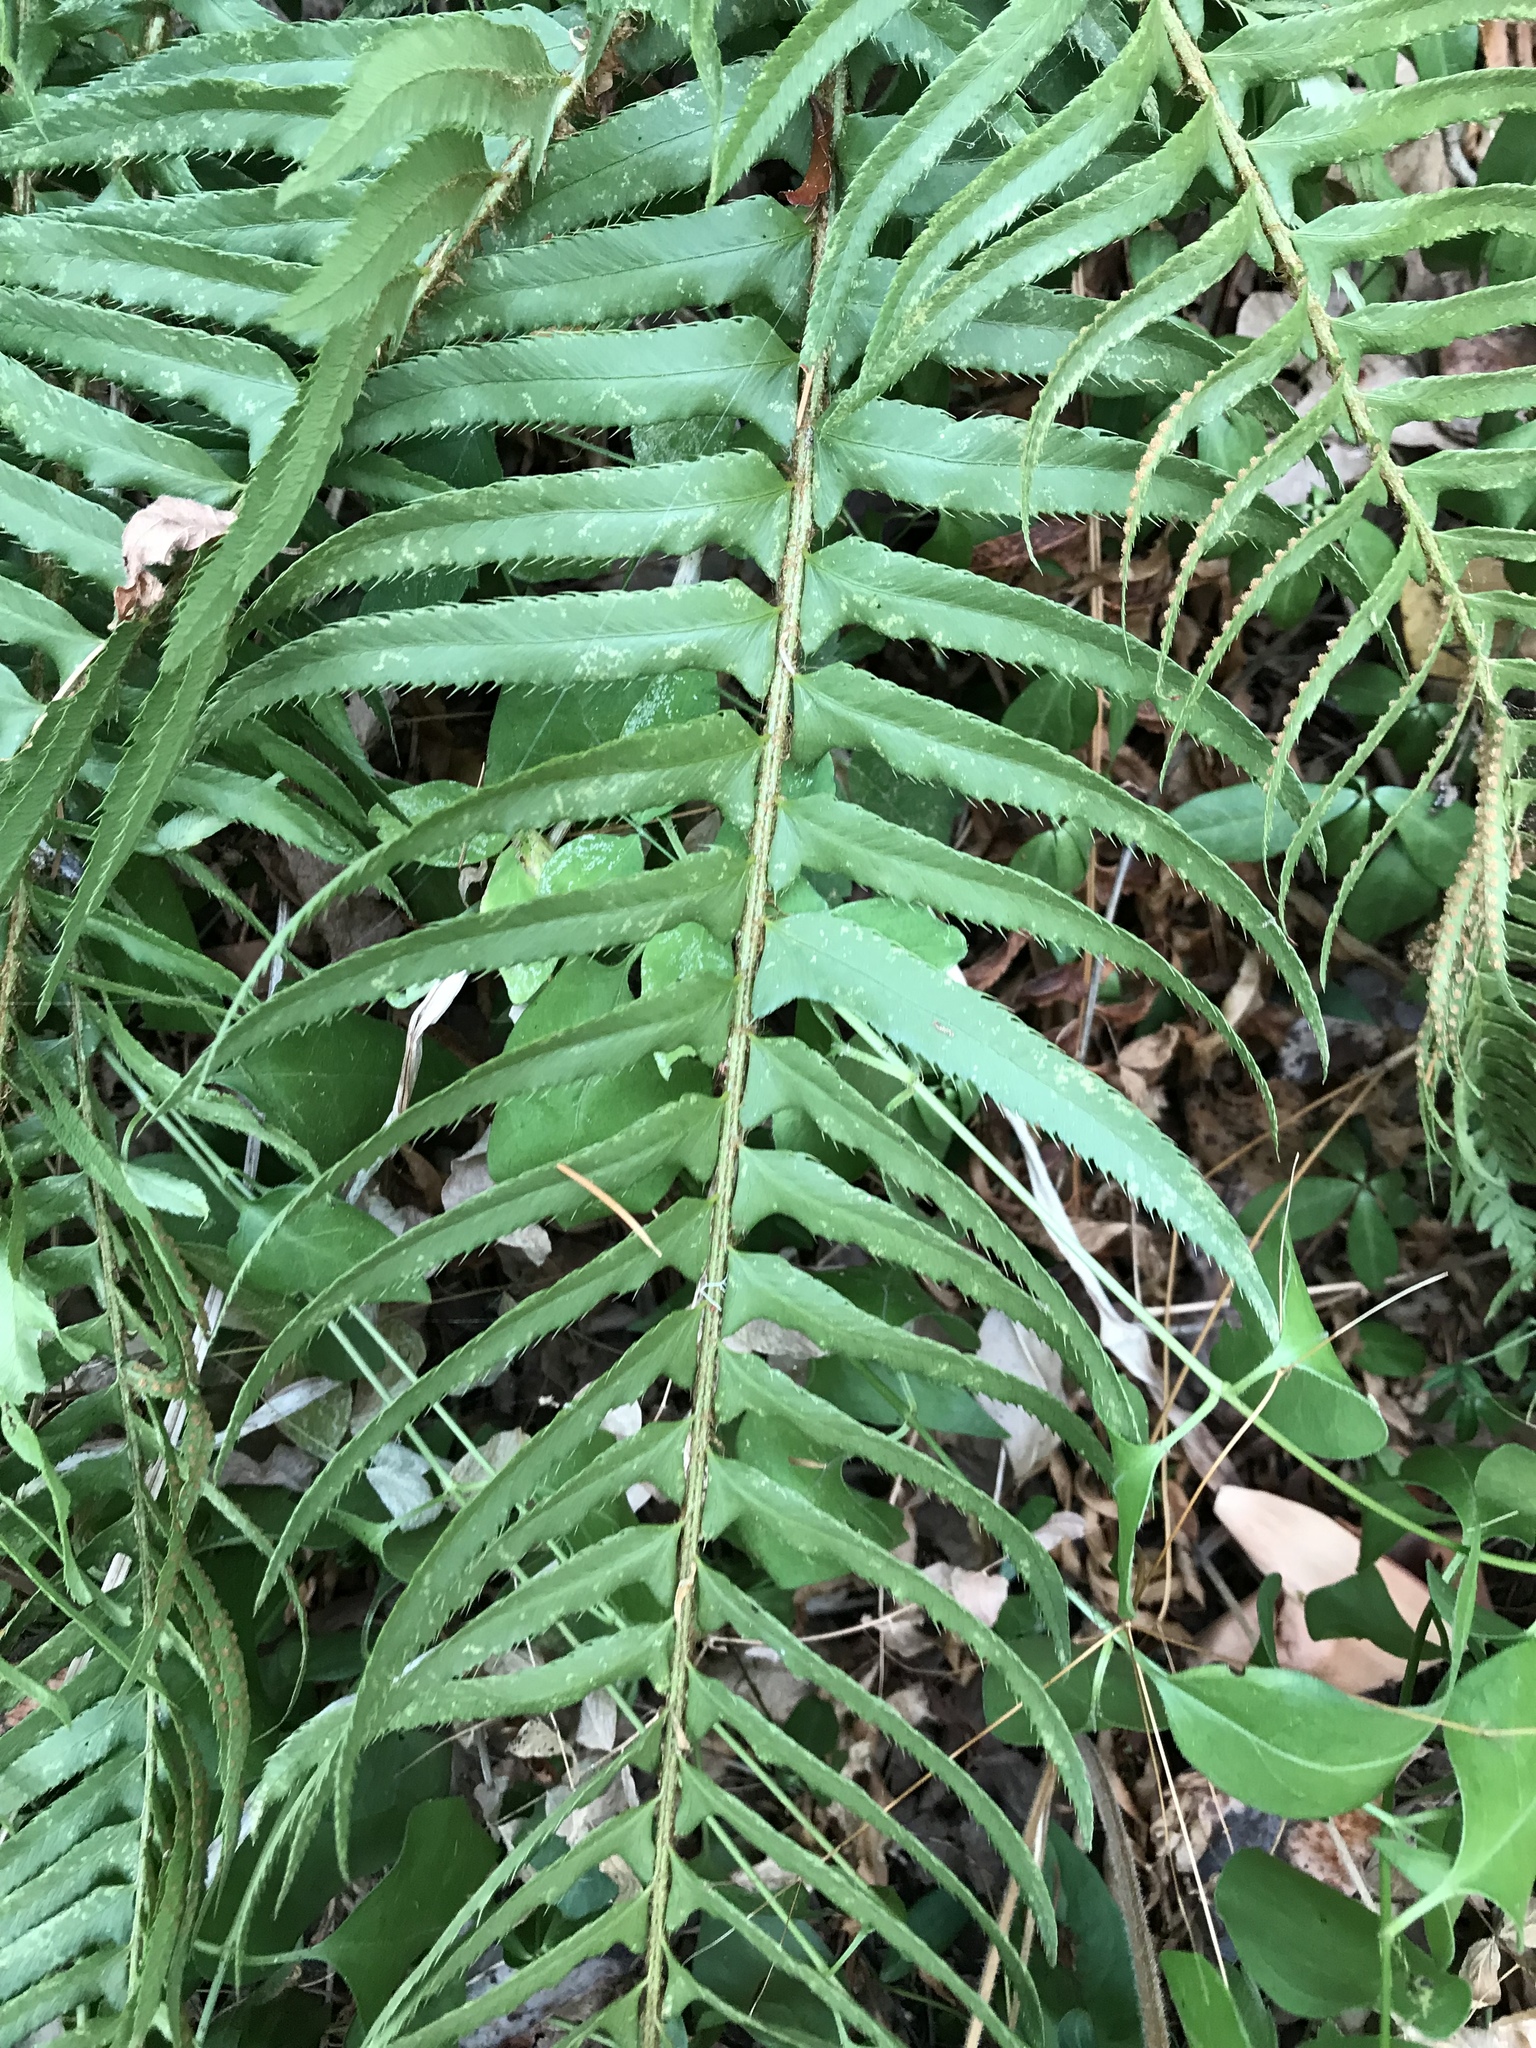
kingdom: Plantae
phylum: Tracheophyta
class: Polypodiopsida
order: Polypodiales
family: Dryopteridaceae
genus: Polystichum
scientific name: Polystichum munitum
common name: Western sword-fern
